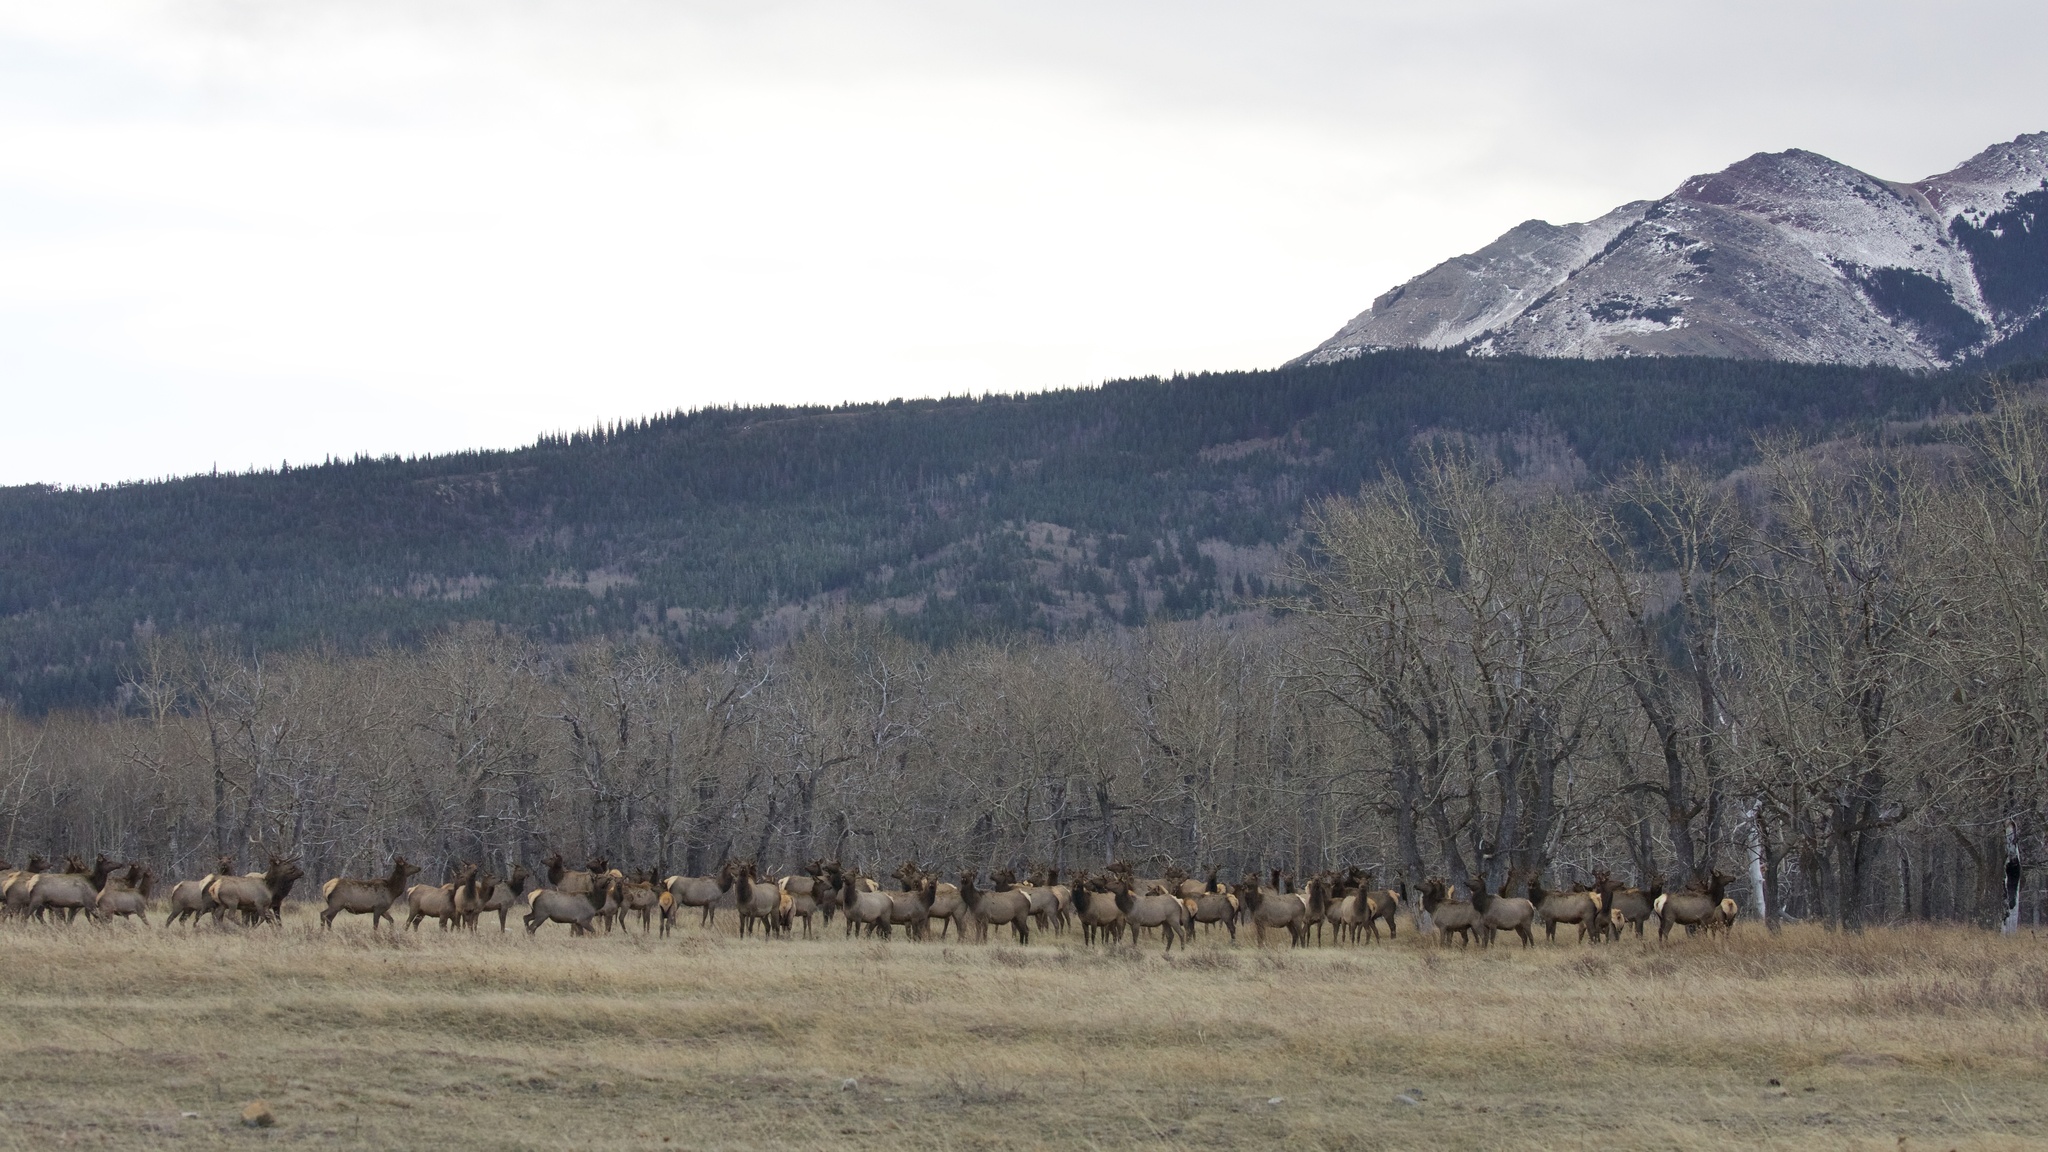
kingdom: Animalia
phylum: Chordata
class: Mammalia
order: Artiodactyla
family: Cervidae
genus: Cervus
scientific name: Cervus elaphus
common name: Red deer
